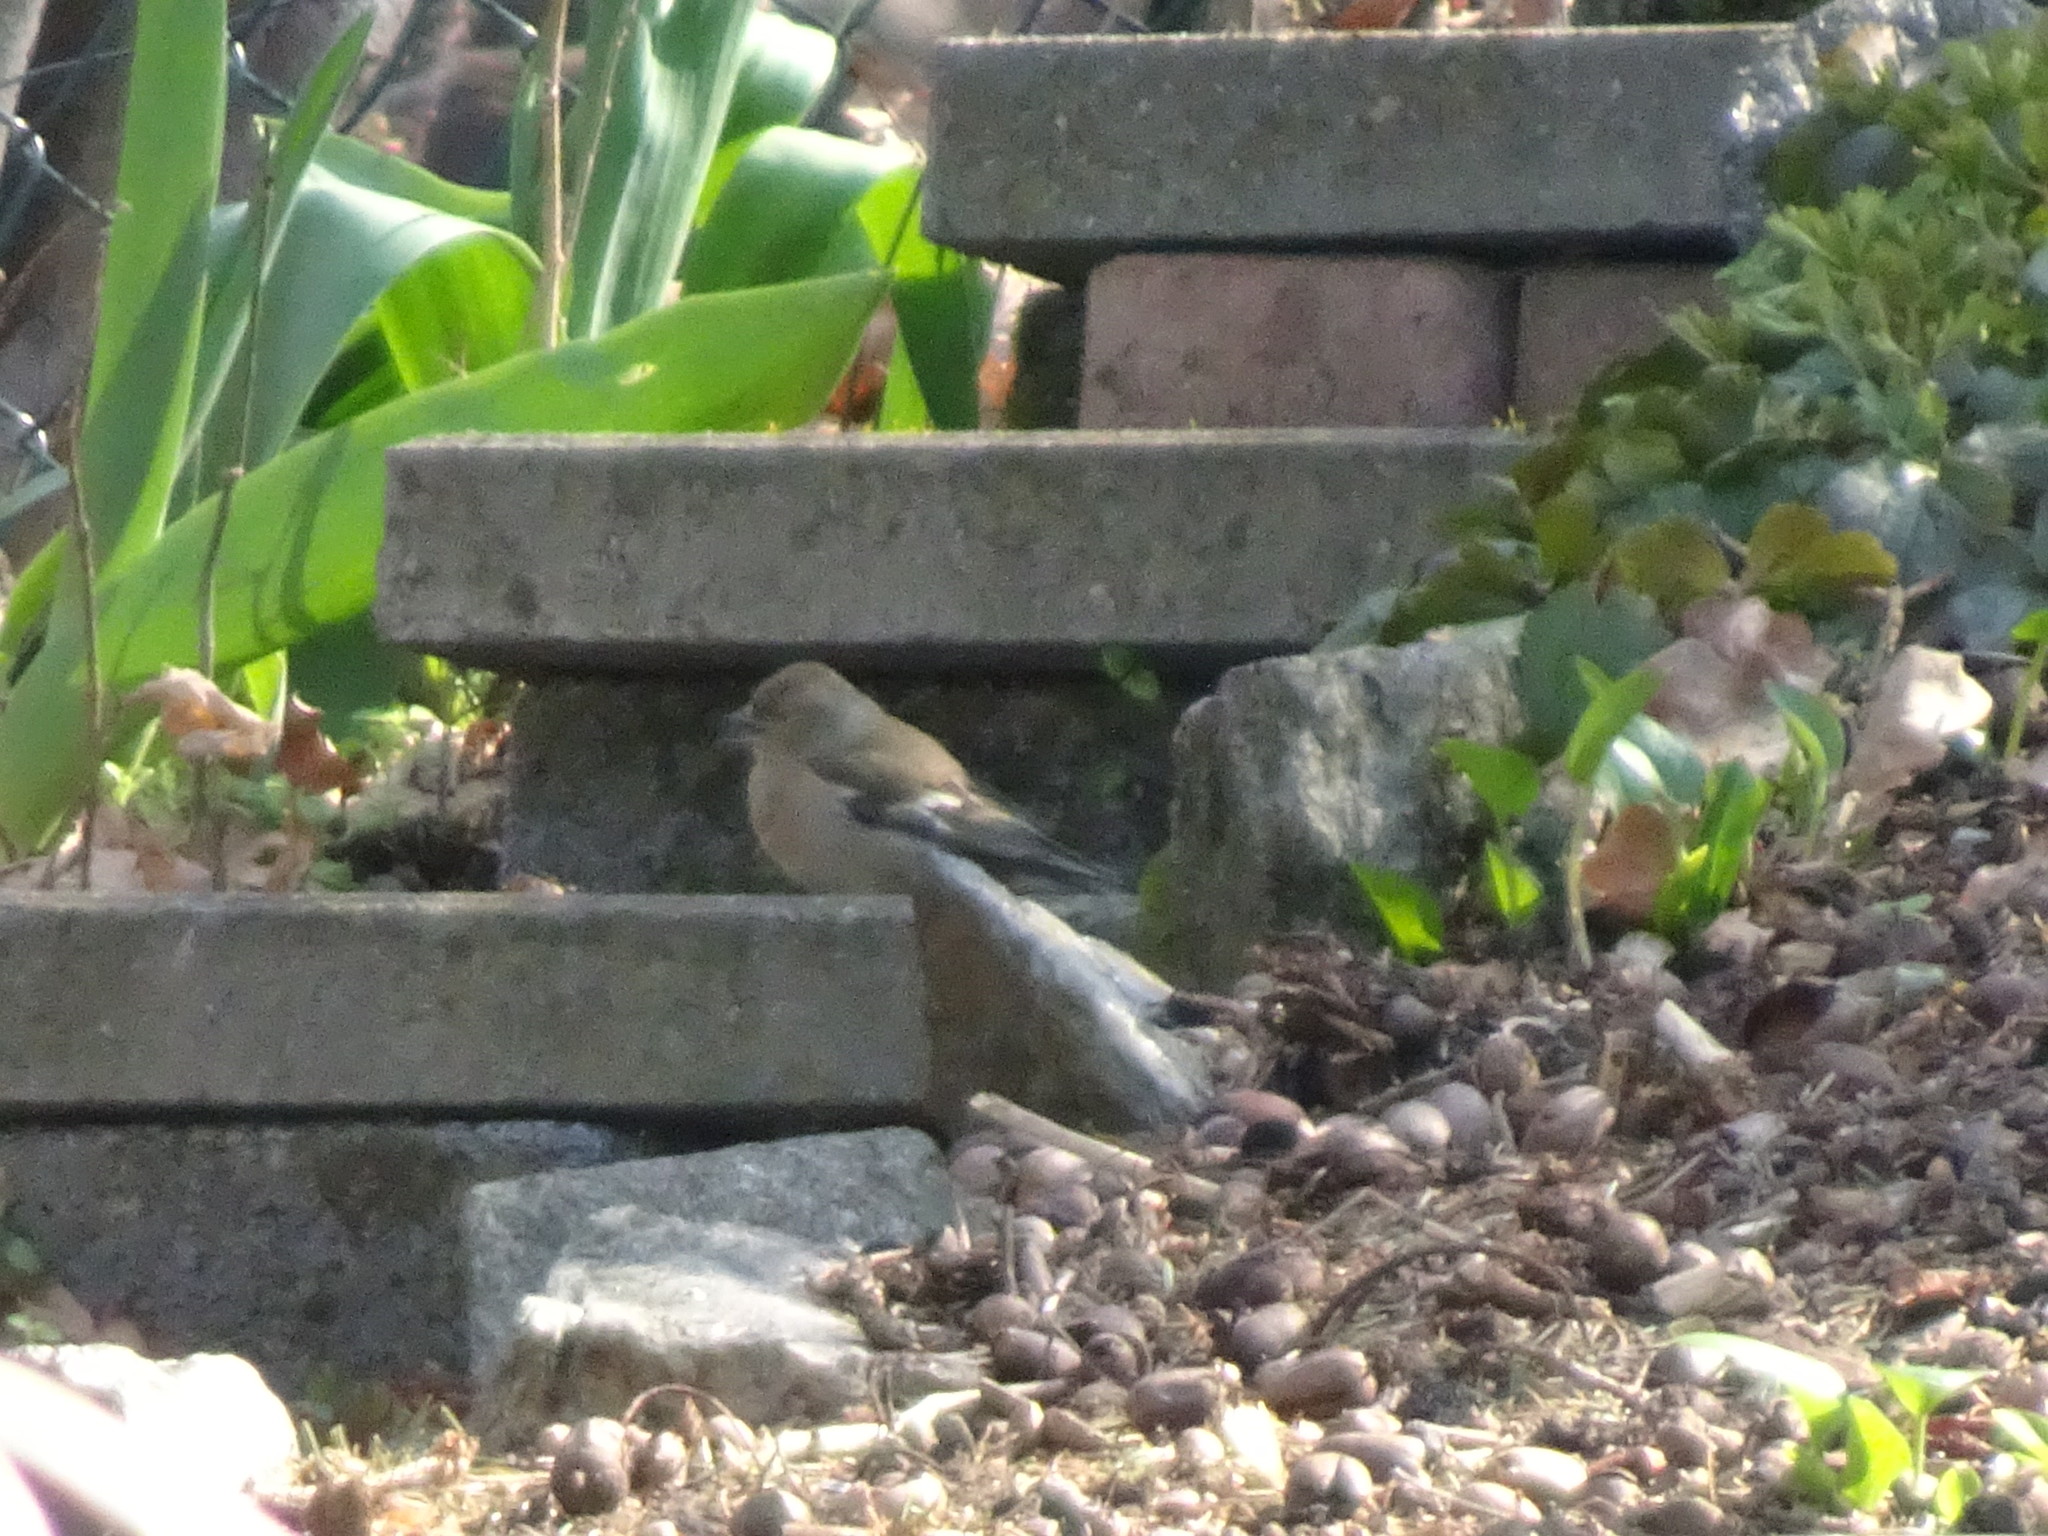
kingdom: Animalia
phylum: Chordata
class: Aves
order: Passeriformes
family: Fringillidae
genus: Fringilla
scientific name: Fringilla coelebs
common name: Common chaffinch
